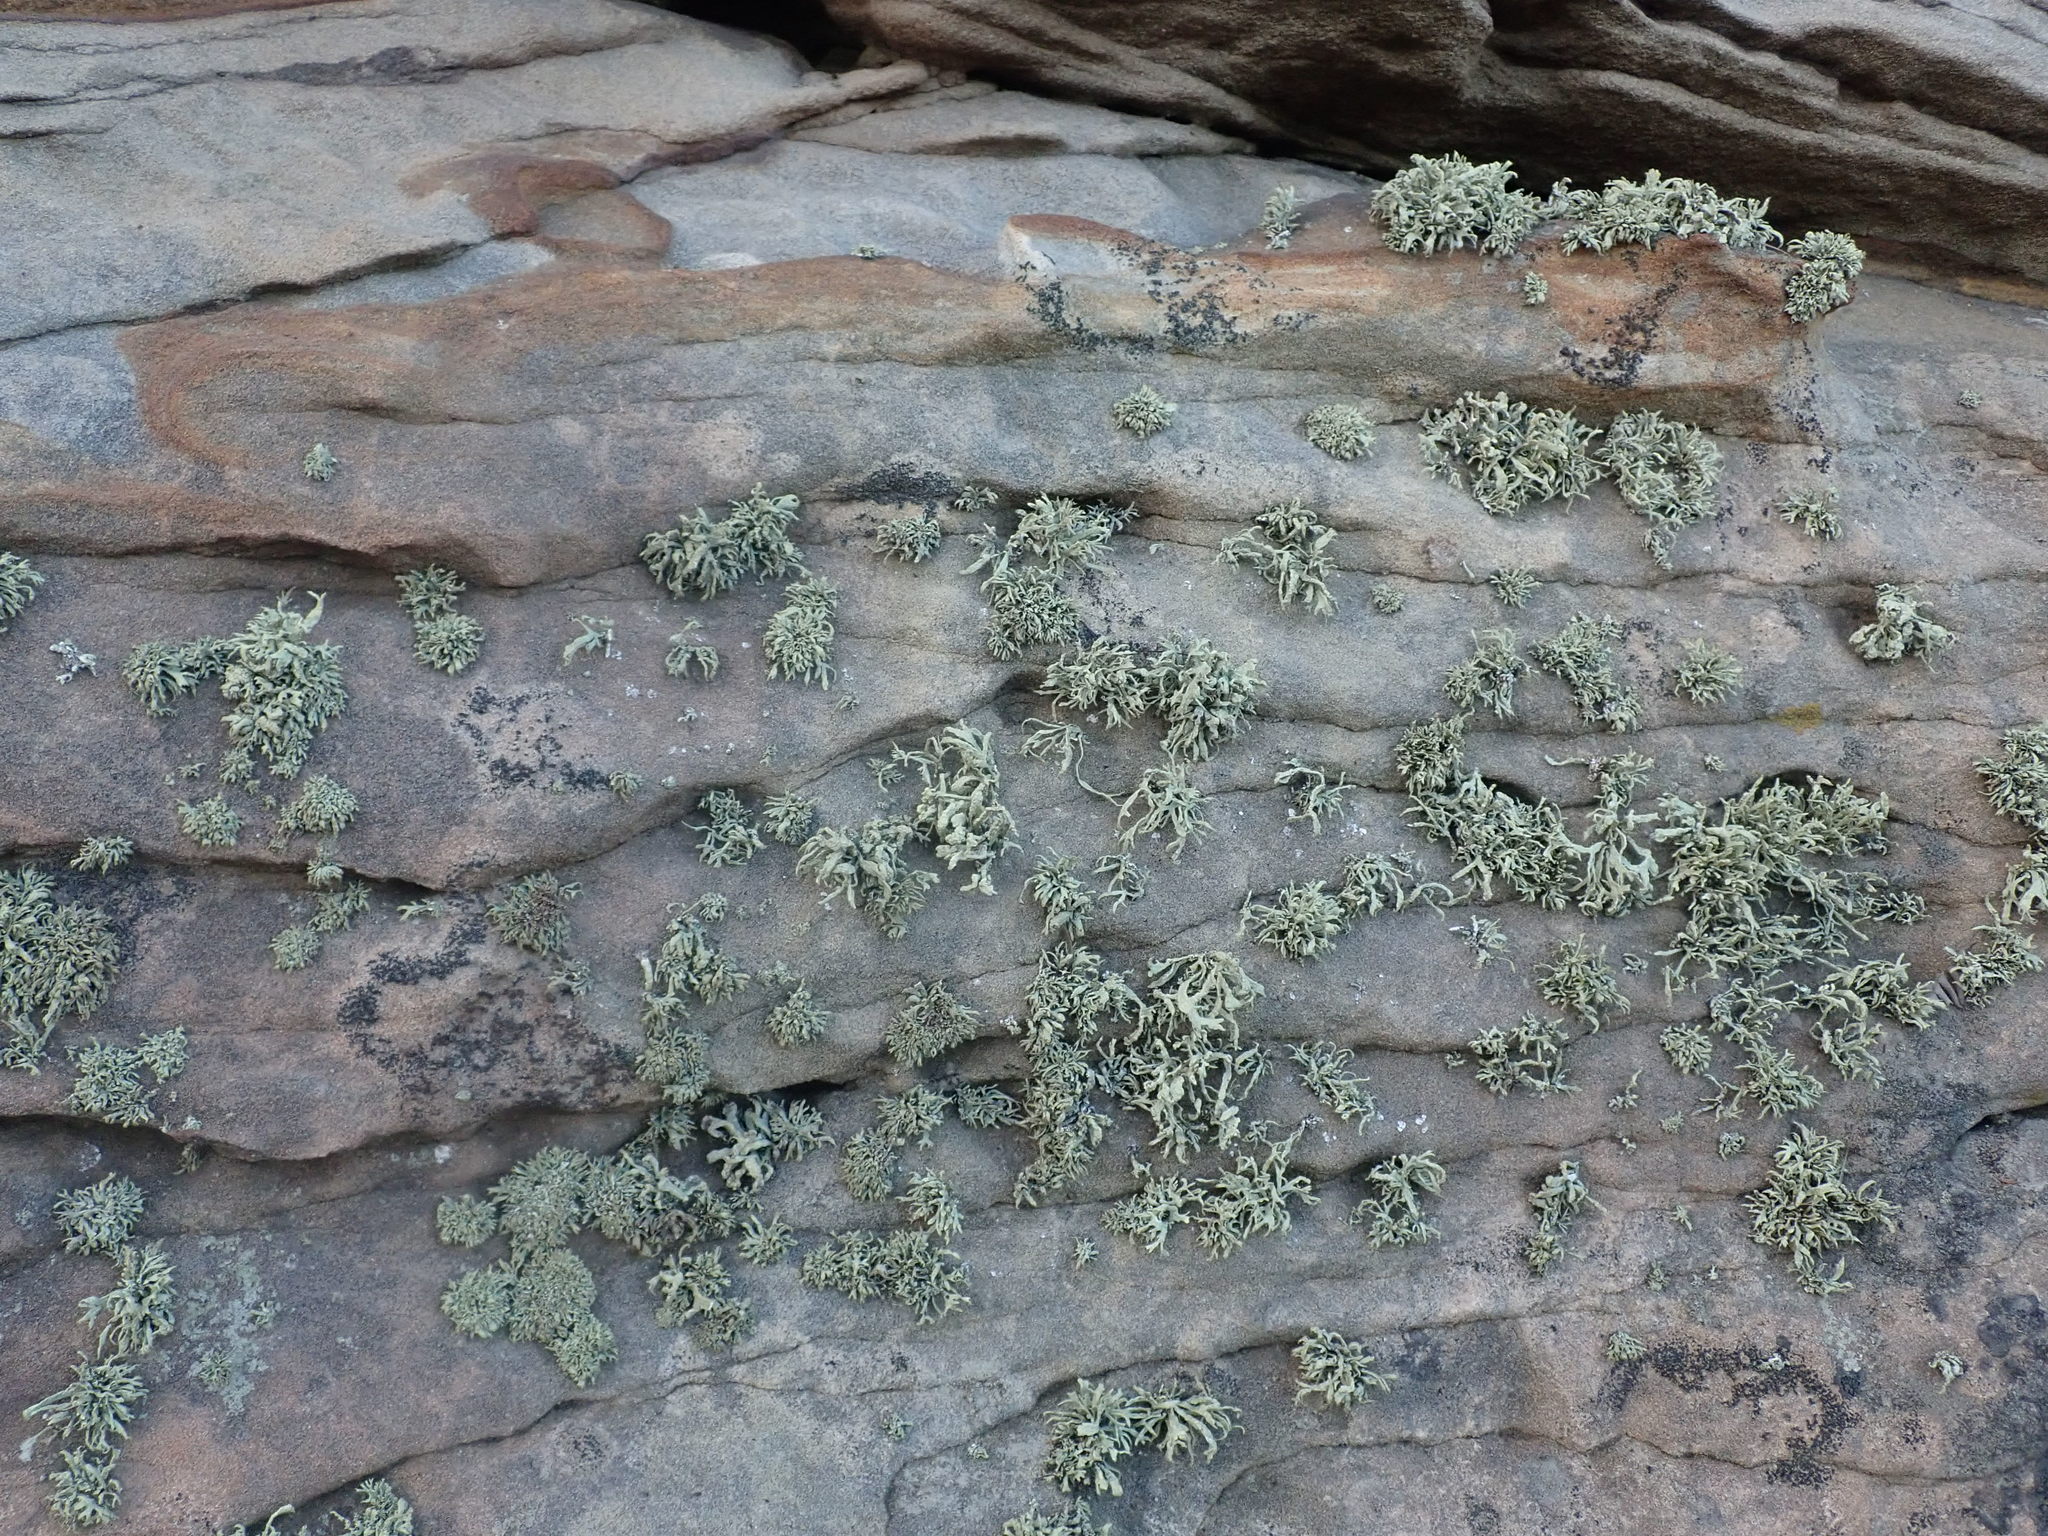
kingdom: Fungi
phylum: Ascomycota
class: Lecanoromycetes
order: Lecanorales
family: Ramalinaceae
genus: Ramalina
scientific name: Ramalina siliquosa
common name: Sea ivory
